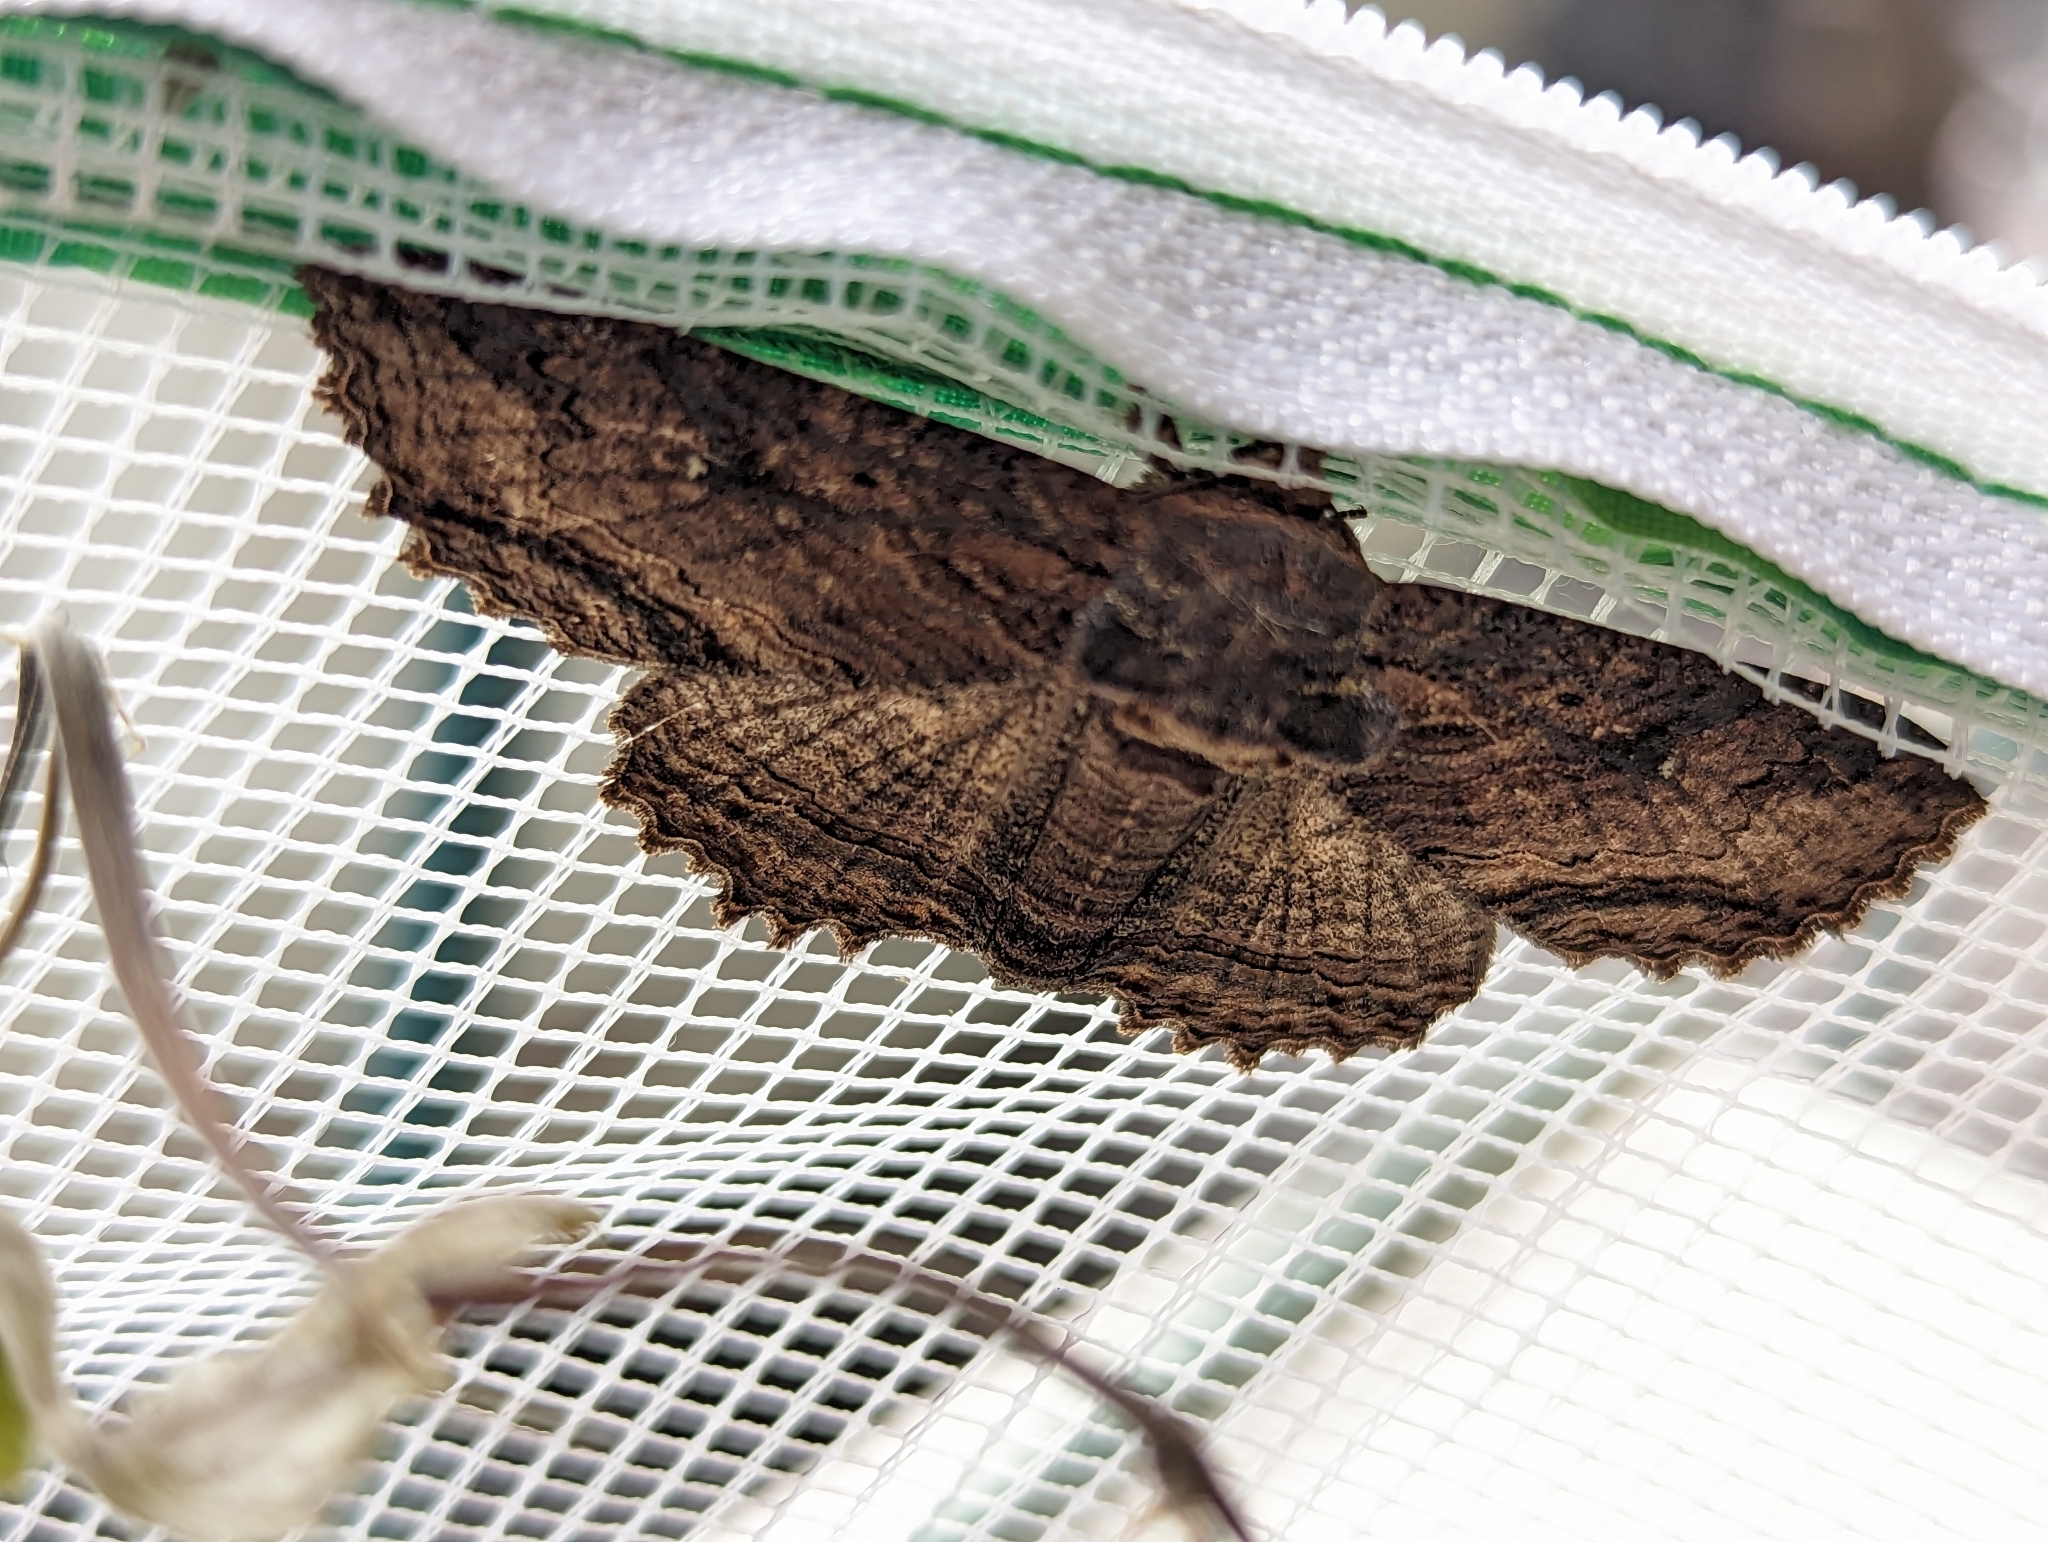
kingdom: Animalia
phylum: Arthropoda
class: Insecta
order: Lepidoptera
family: Erebidae
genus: Zale
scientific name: Zale lunata
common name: Lunate zale moth
